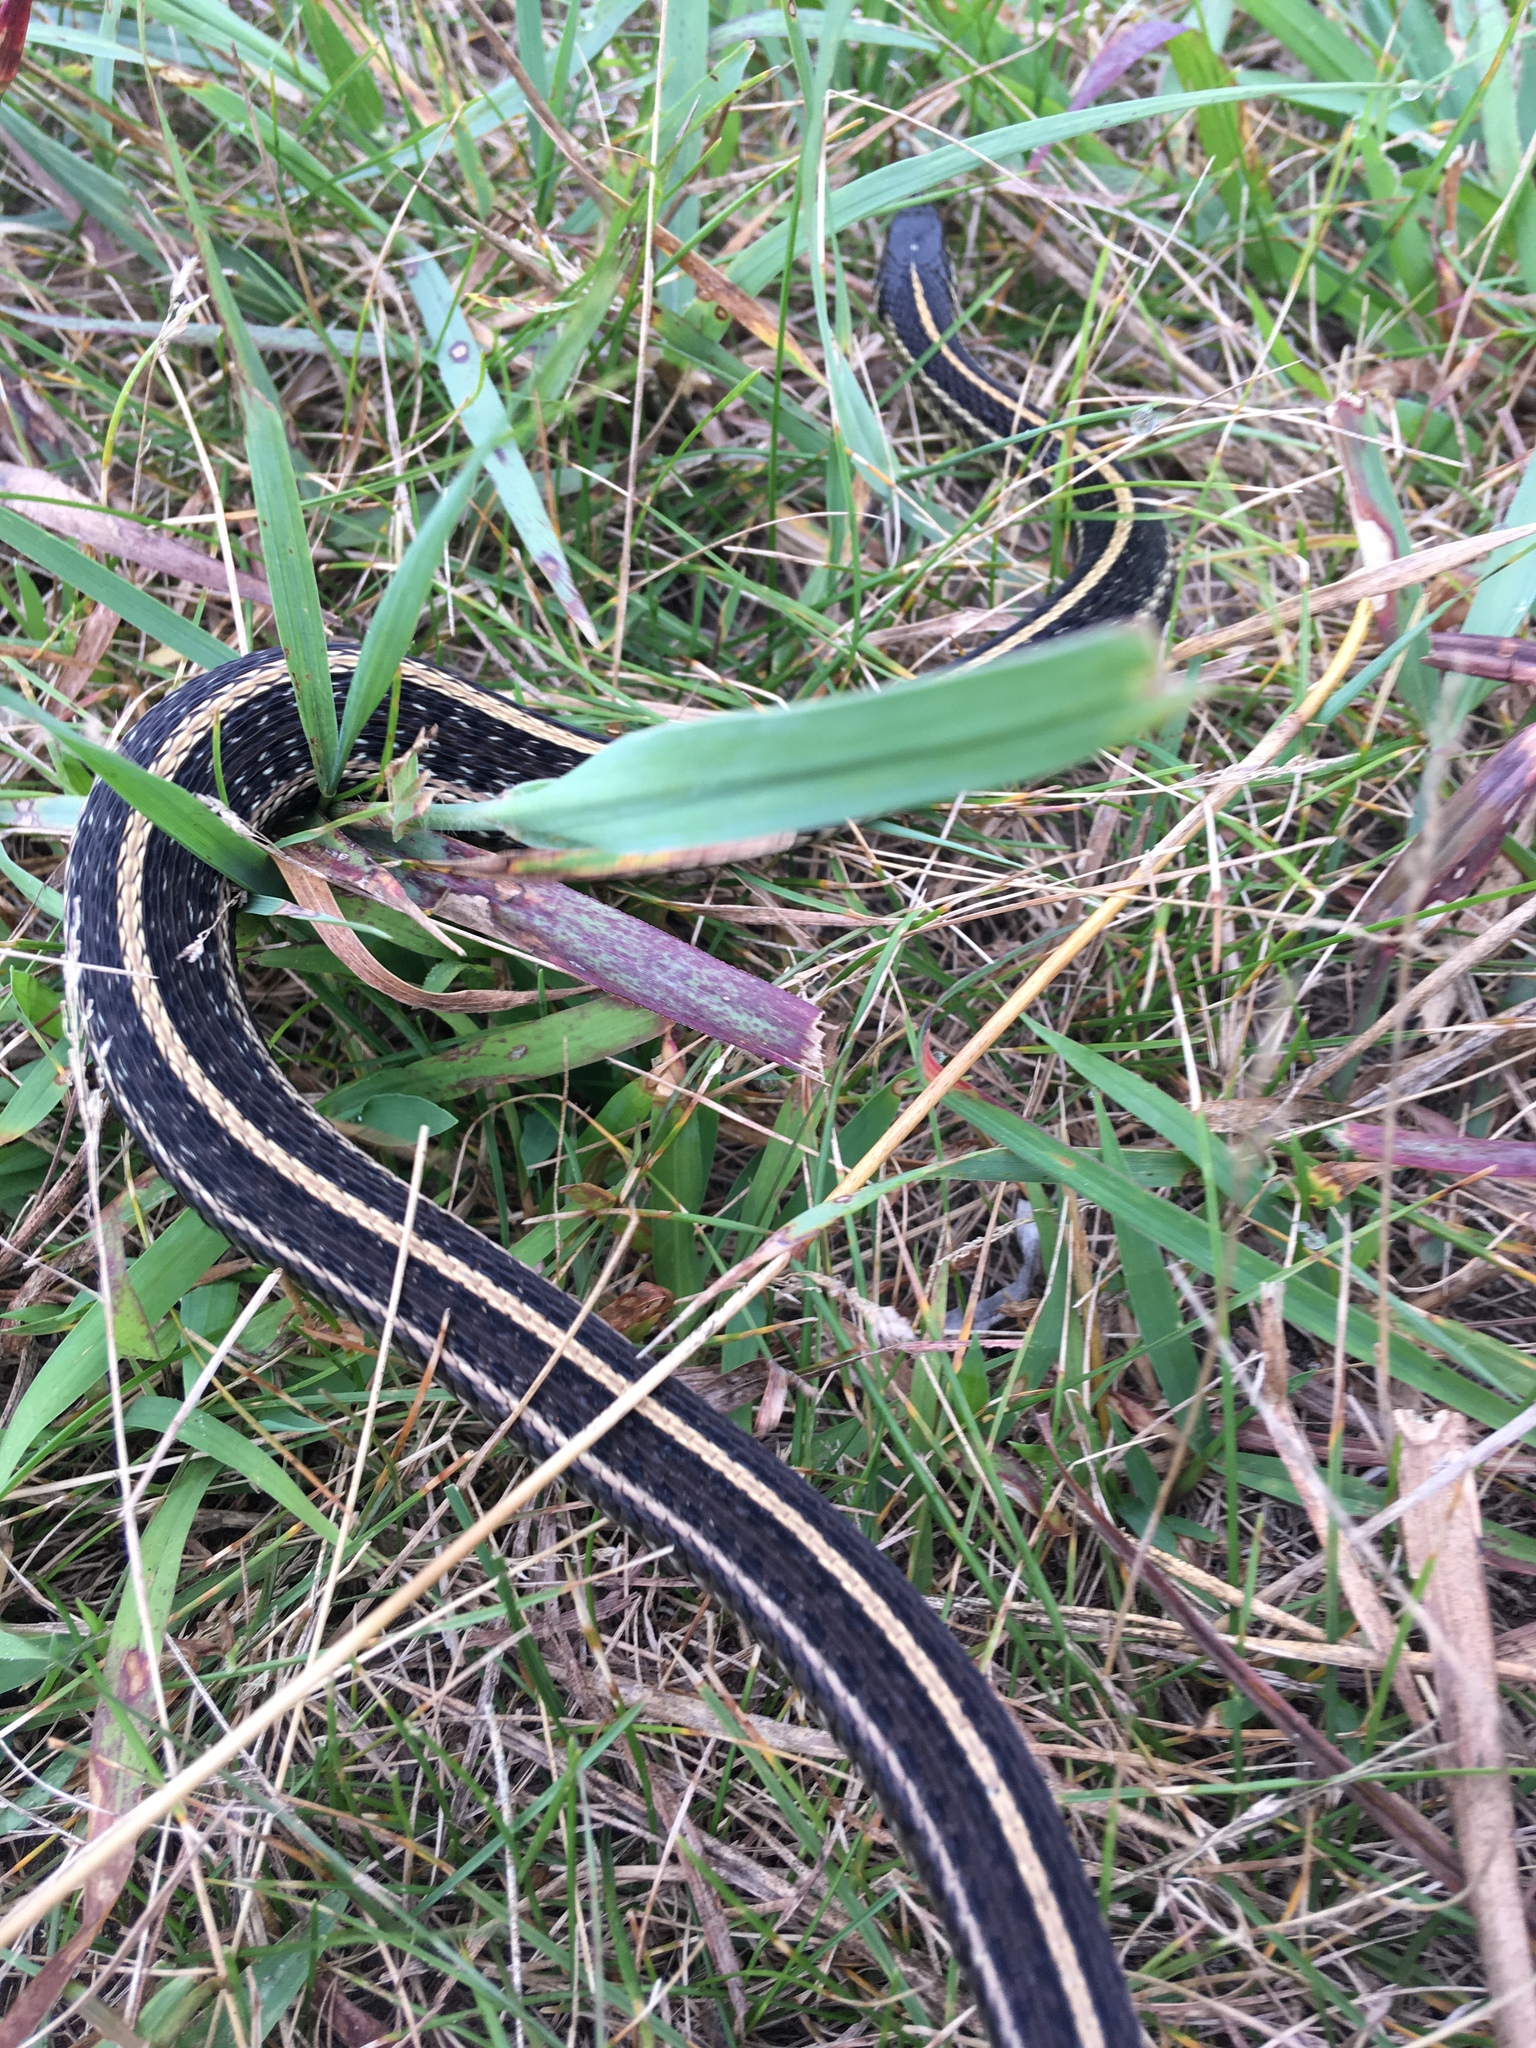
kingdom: Animalia
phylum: Chordata
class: Squamata
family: Colubridae
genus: Thamnophis
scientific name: Thamnophis radix
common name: Plains garter snake
